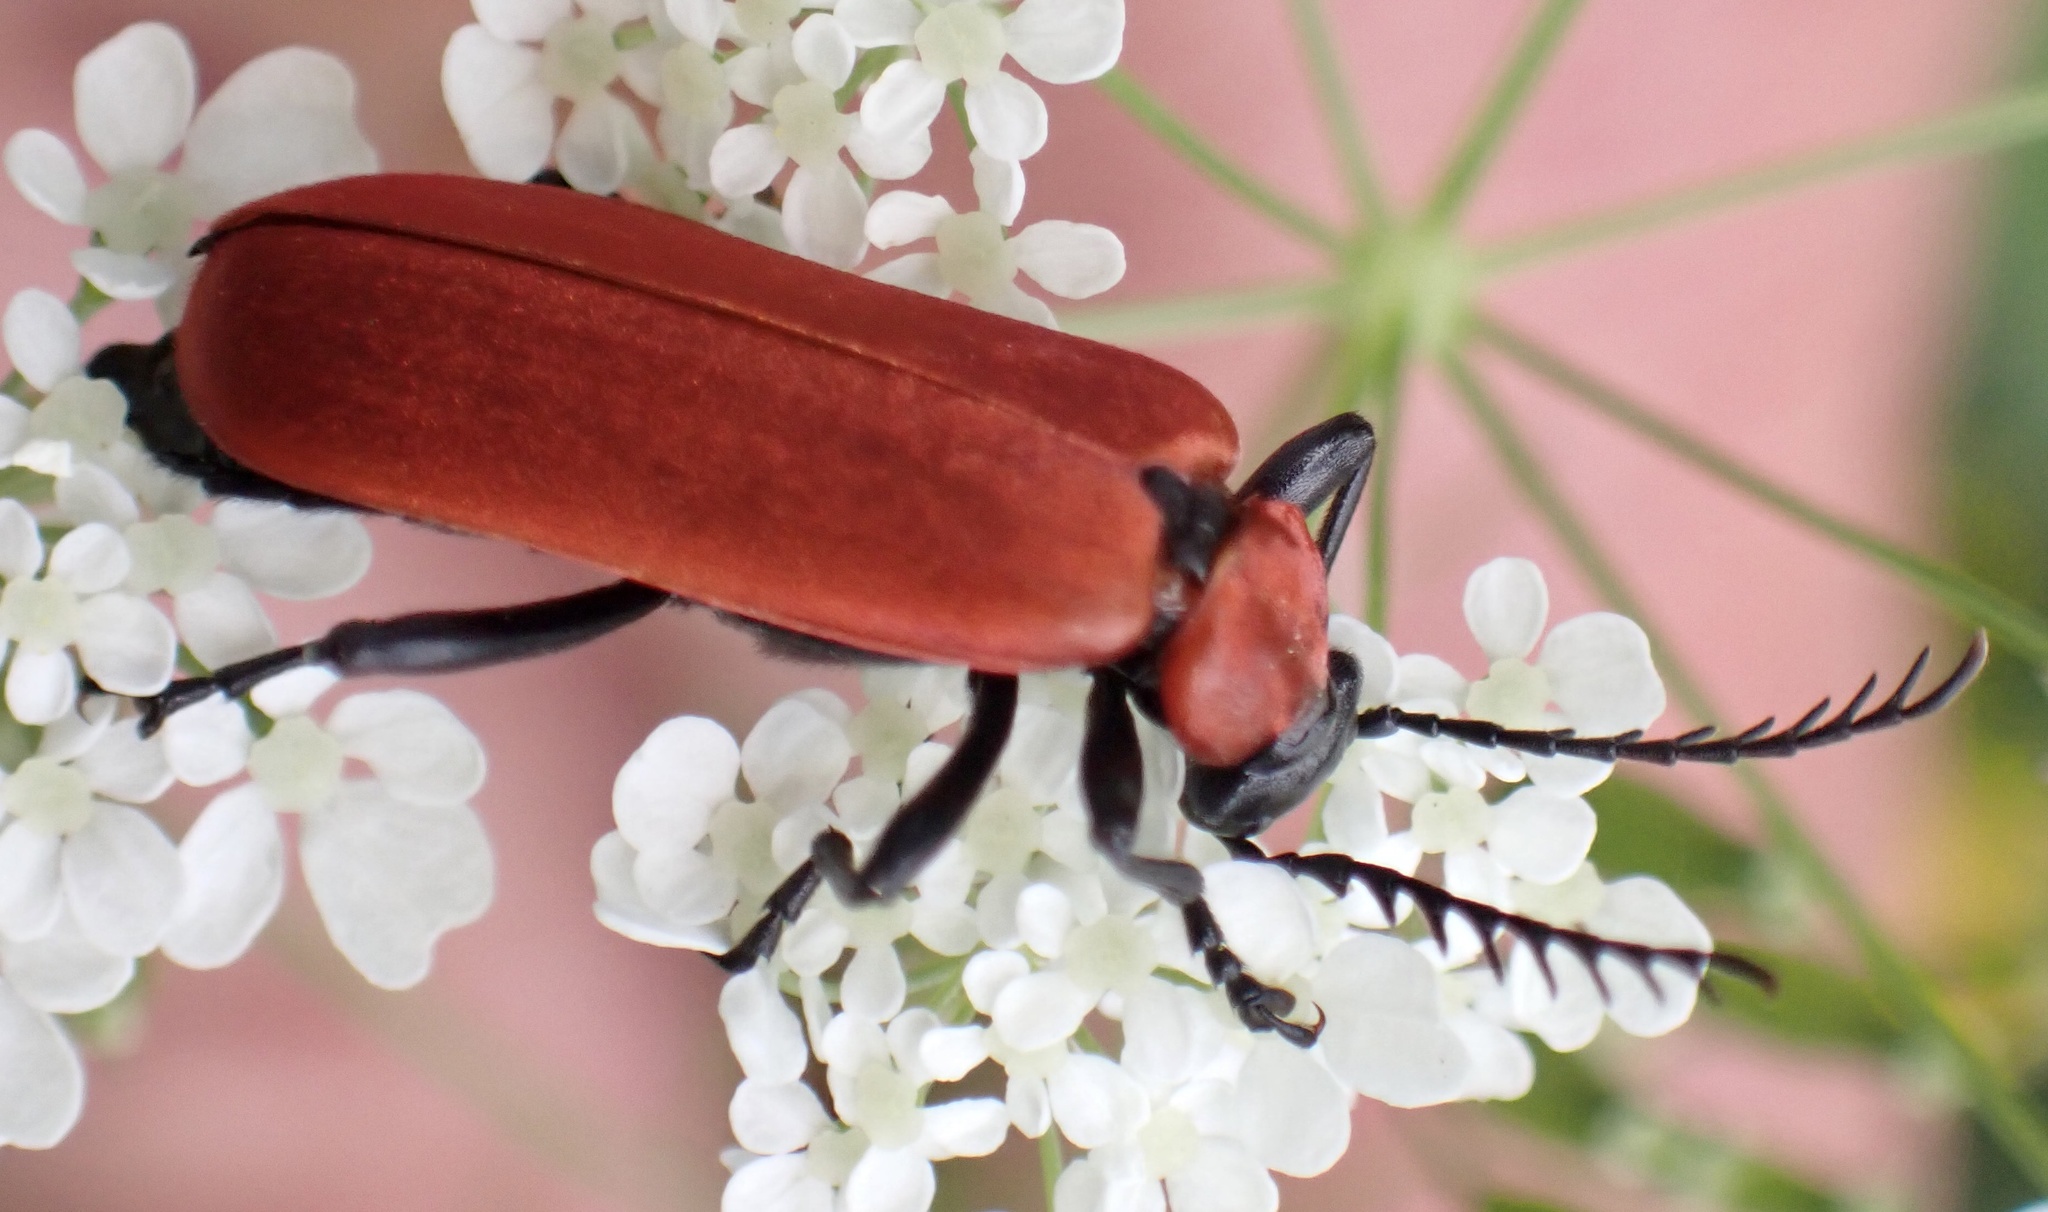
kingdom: Animalia
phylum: Arthropoda
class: Insecta
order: Coleoptera
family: Pyrochroidae
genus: Pyrochroa
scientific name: Pyrochroa coccinea
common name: Black-headed cardinal beetle
